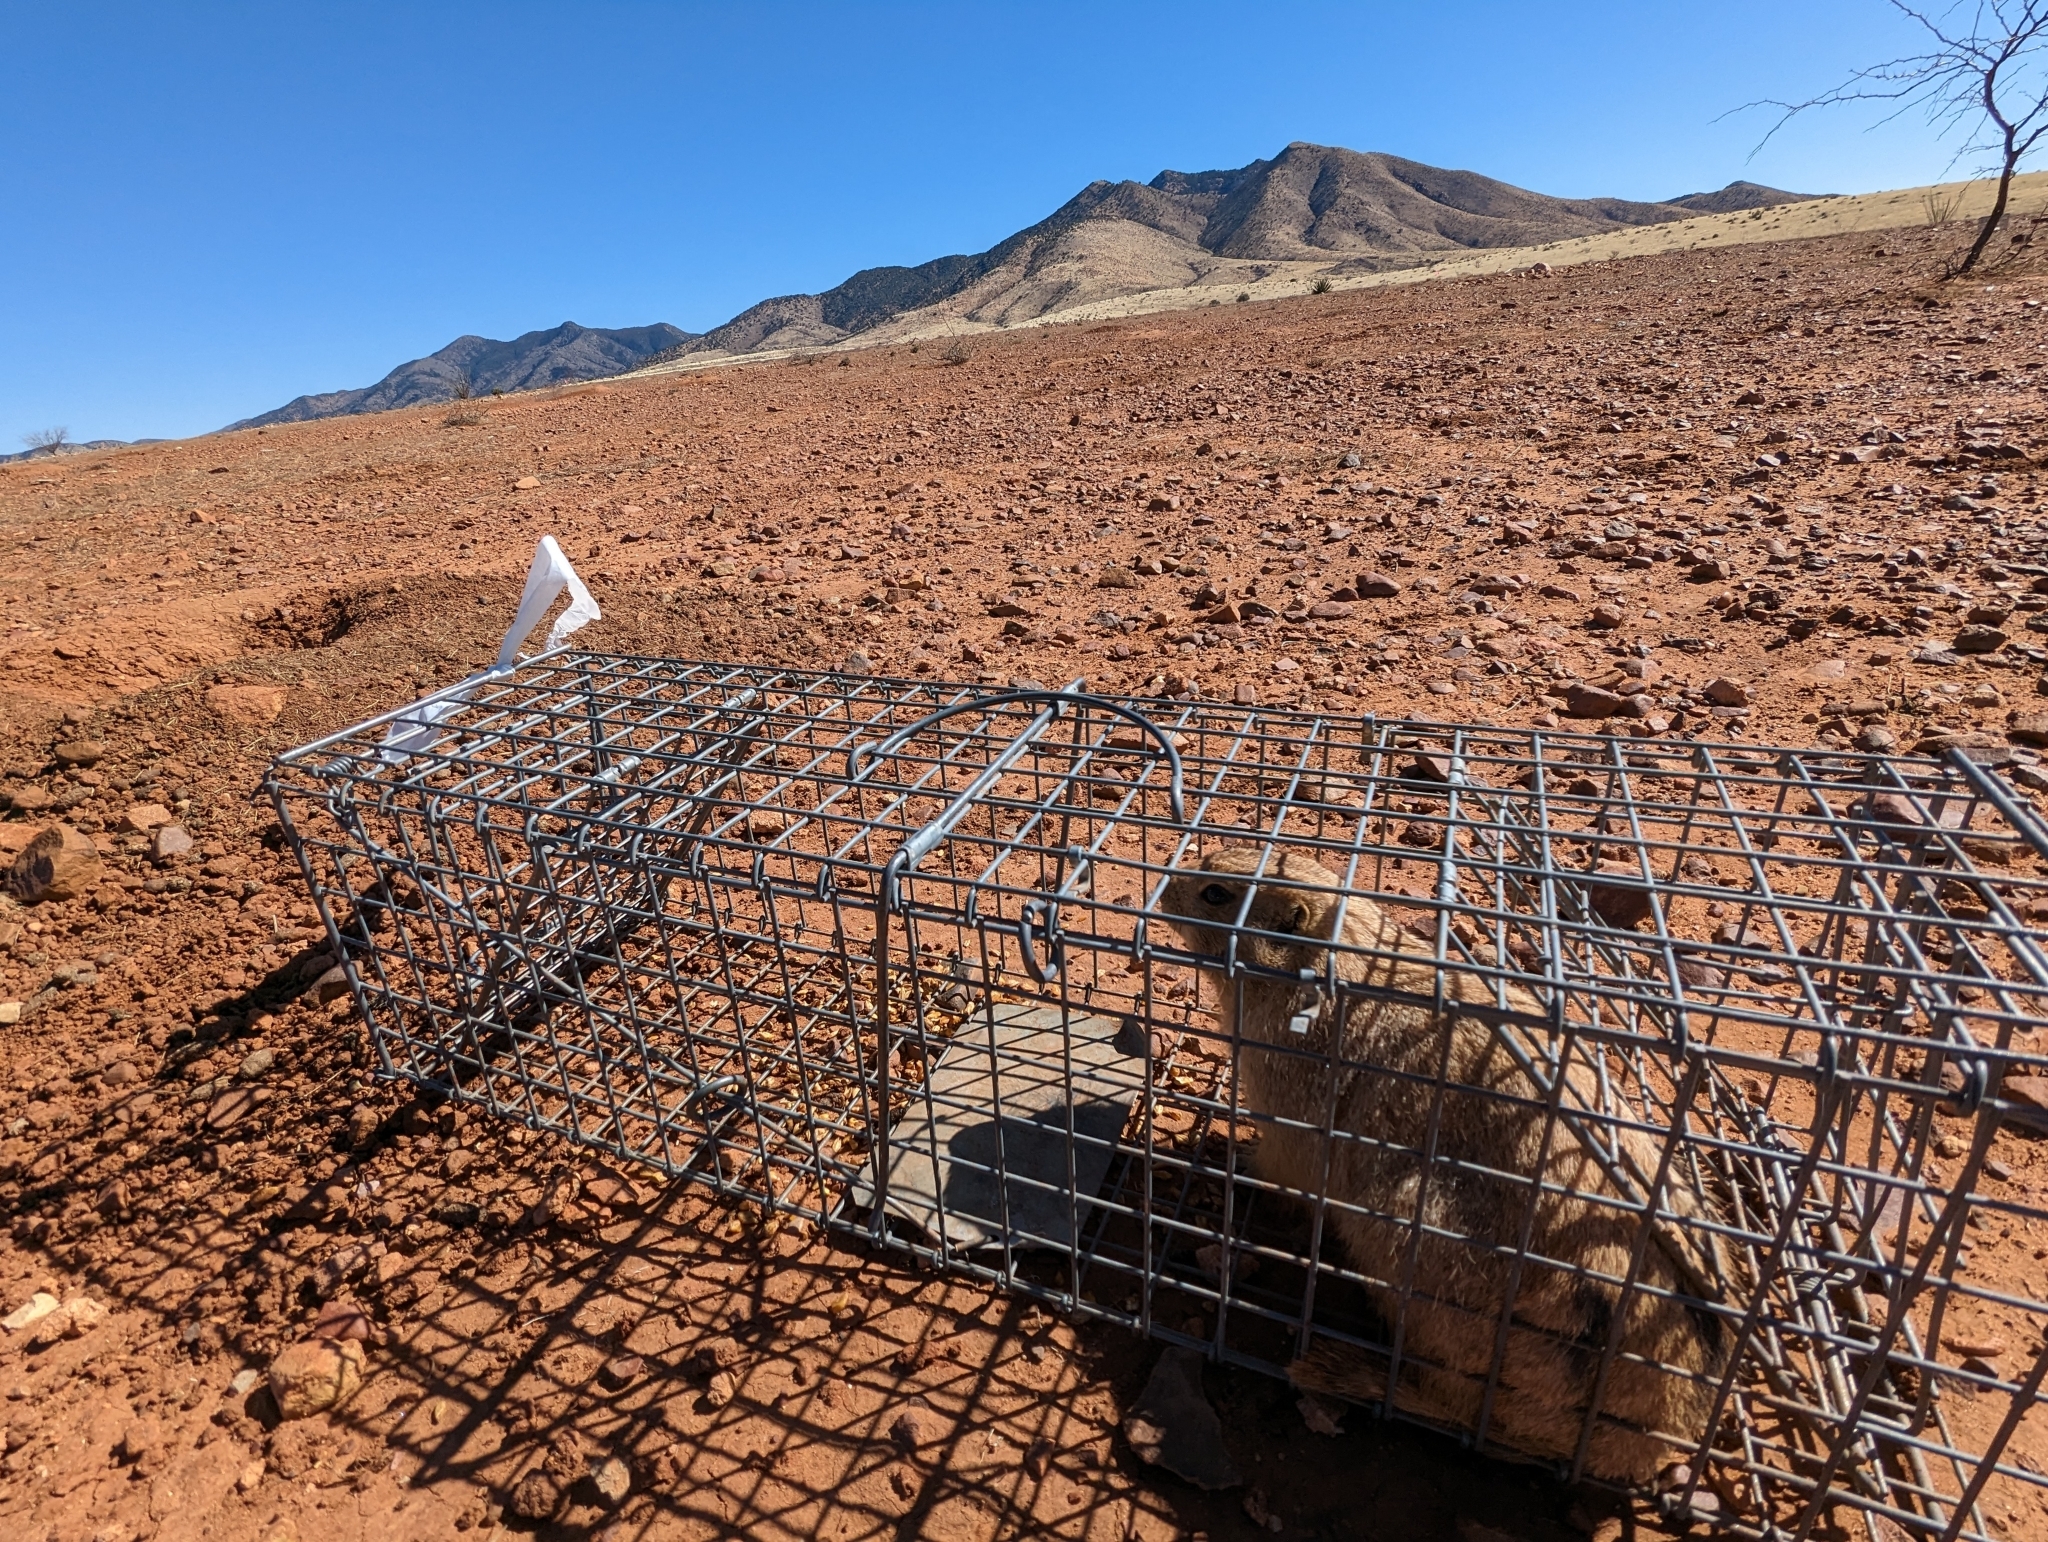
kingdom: Animalia
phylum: Chordata
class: Mammalia
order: Rodentia
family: Sciuridae
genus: Cynomys
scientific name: Cynomys ludovicianus
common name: Black-tailed prairie dog
